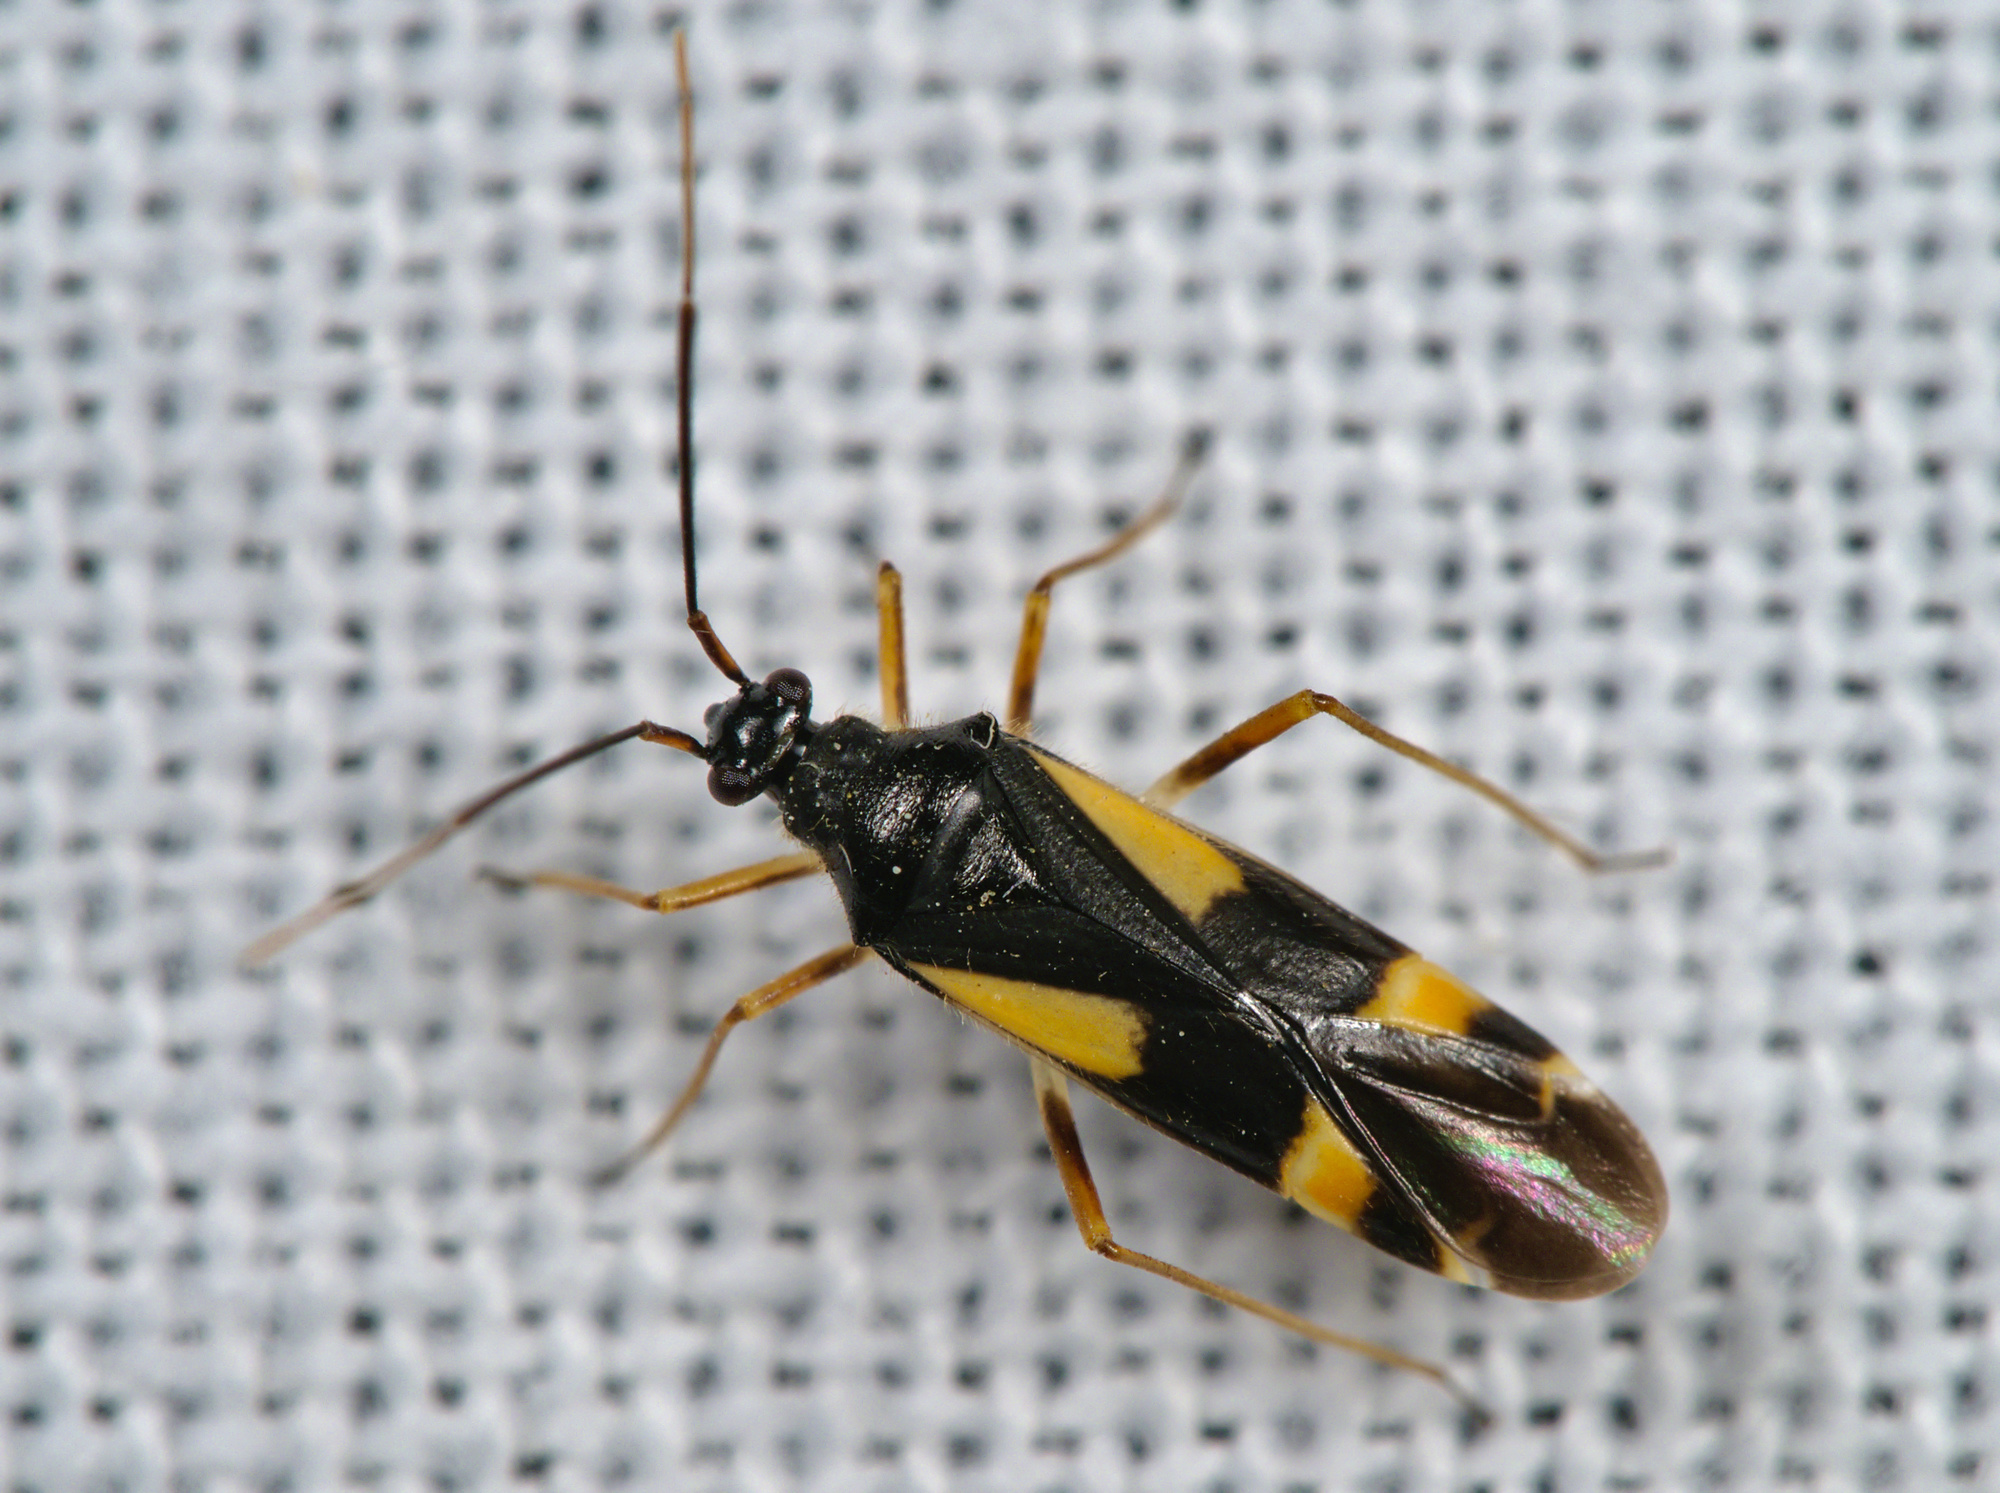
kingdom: Animalia
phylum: Arthropoda
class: Insecta
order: Hemiptera
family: Miridae
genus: Dryophilocoris
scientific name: Dryophilocoris flavoquadrimaculatus
